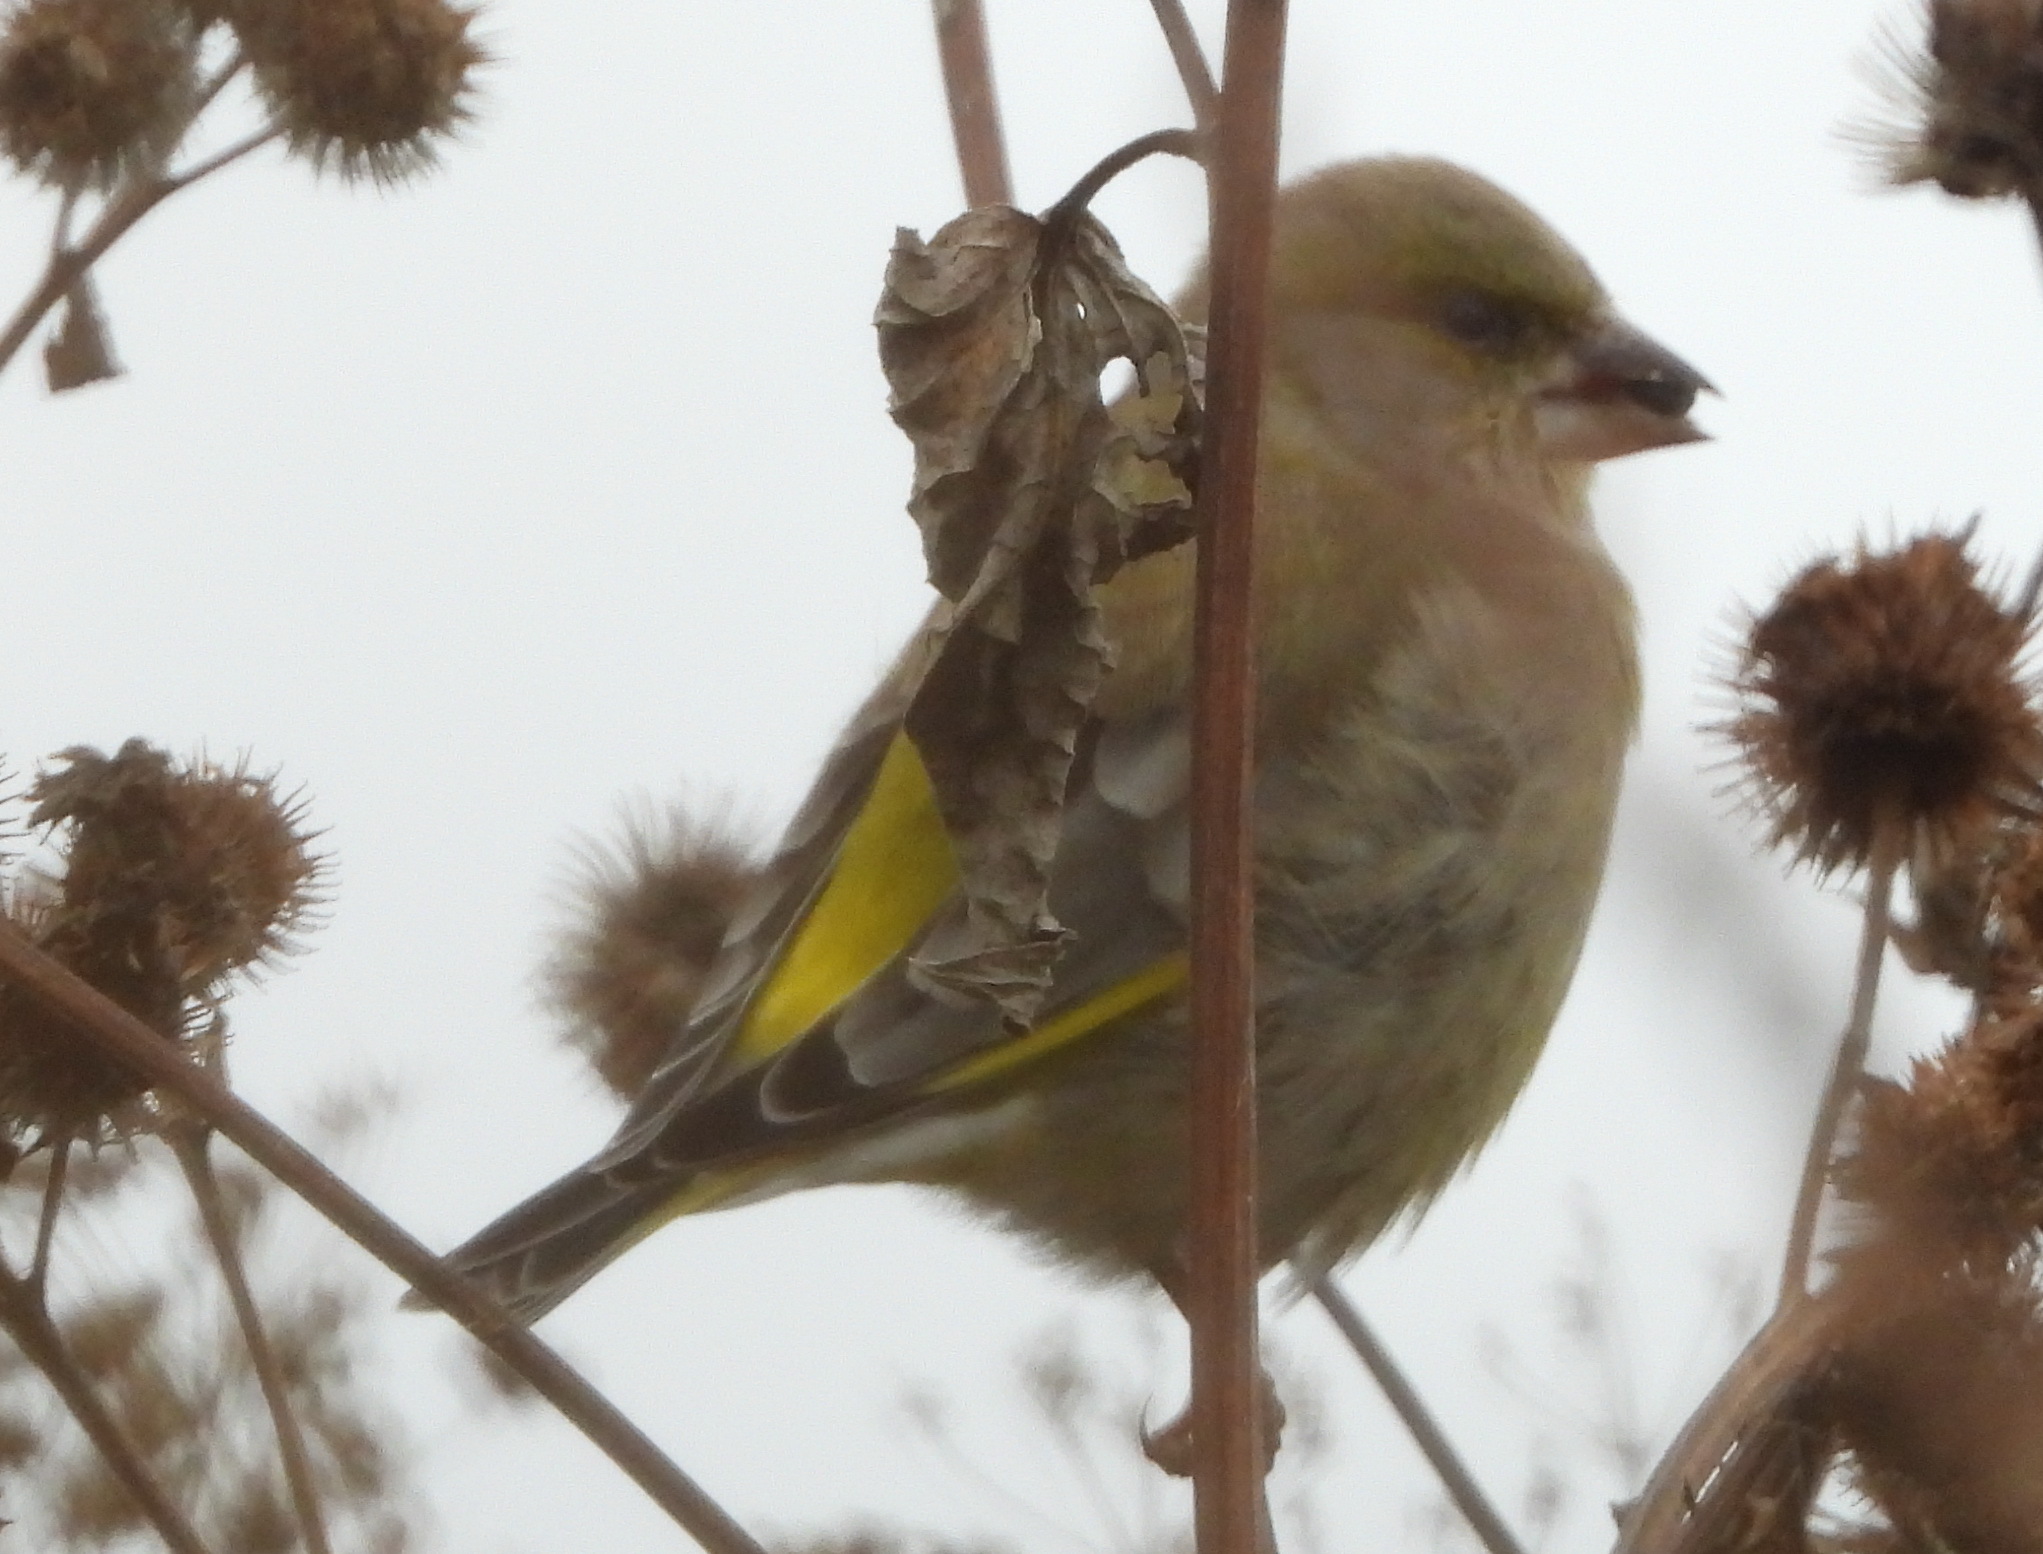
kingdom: Plantae
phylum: Tracheophyta
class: Liliopsida
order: Poales
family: Poaceae
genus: Chloris
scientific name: Chloris chloris
